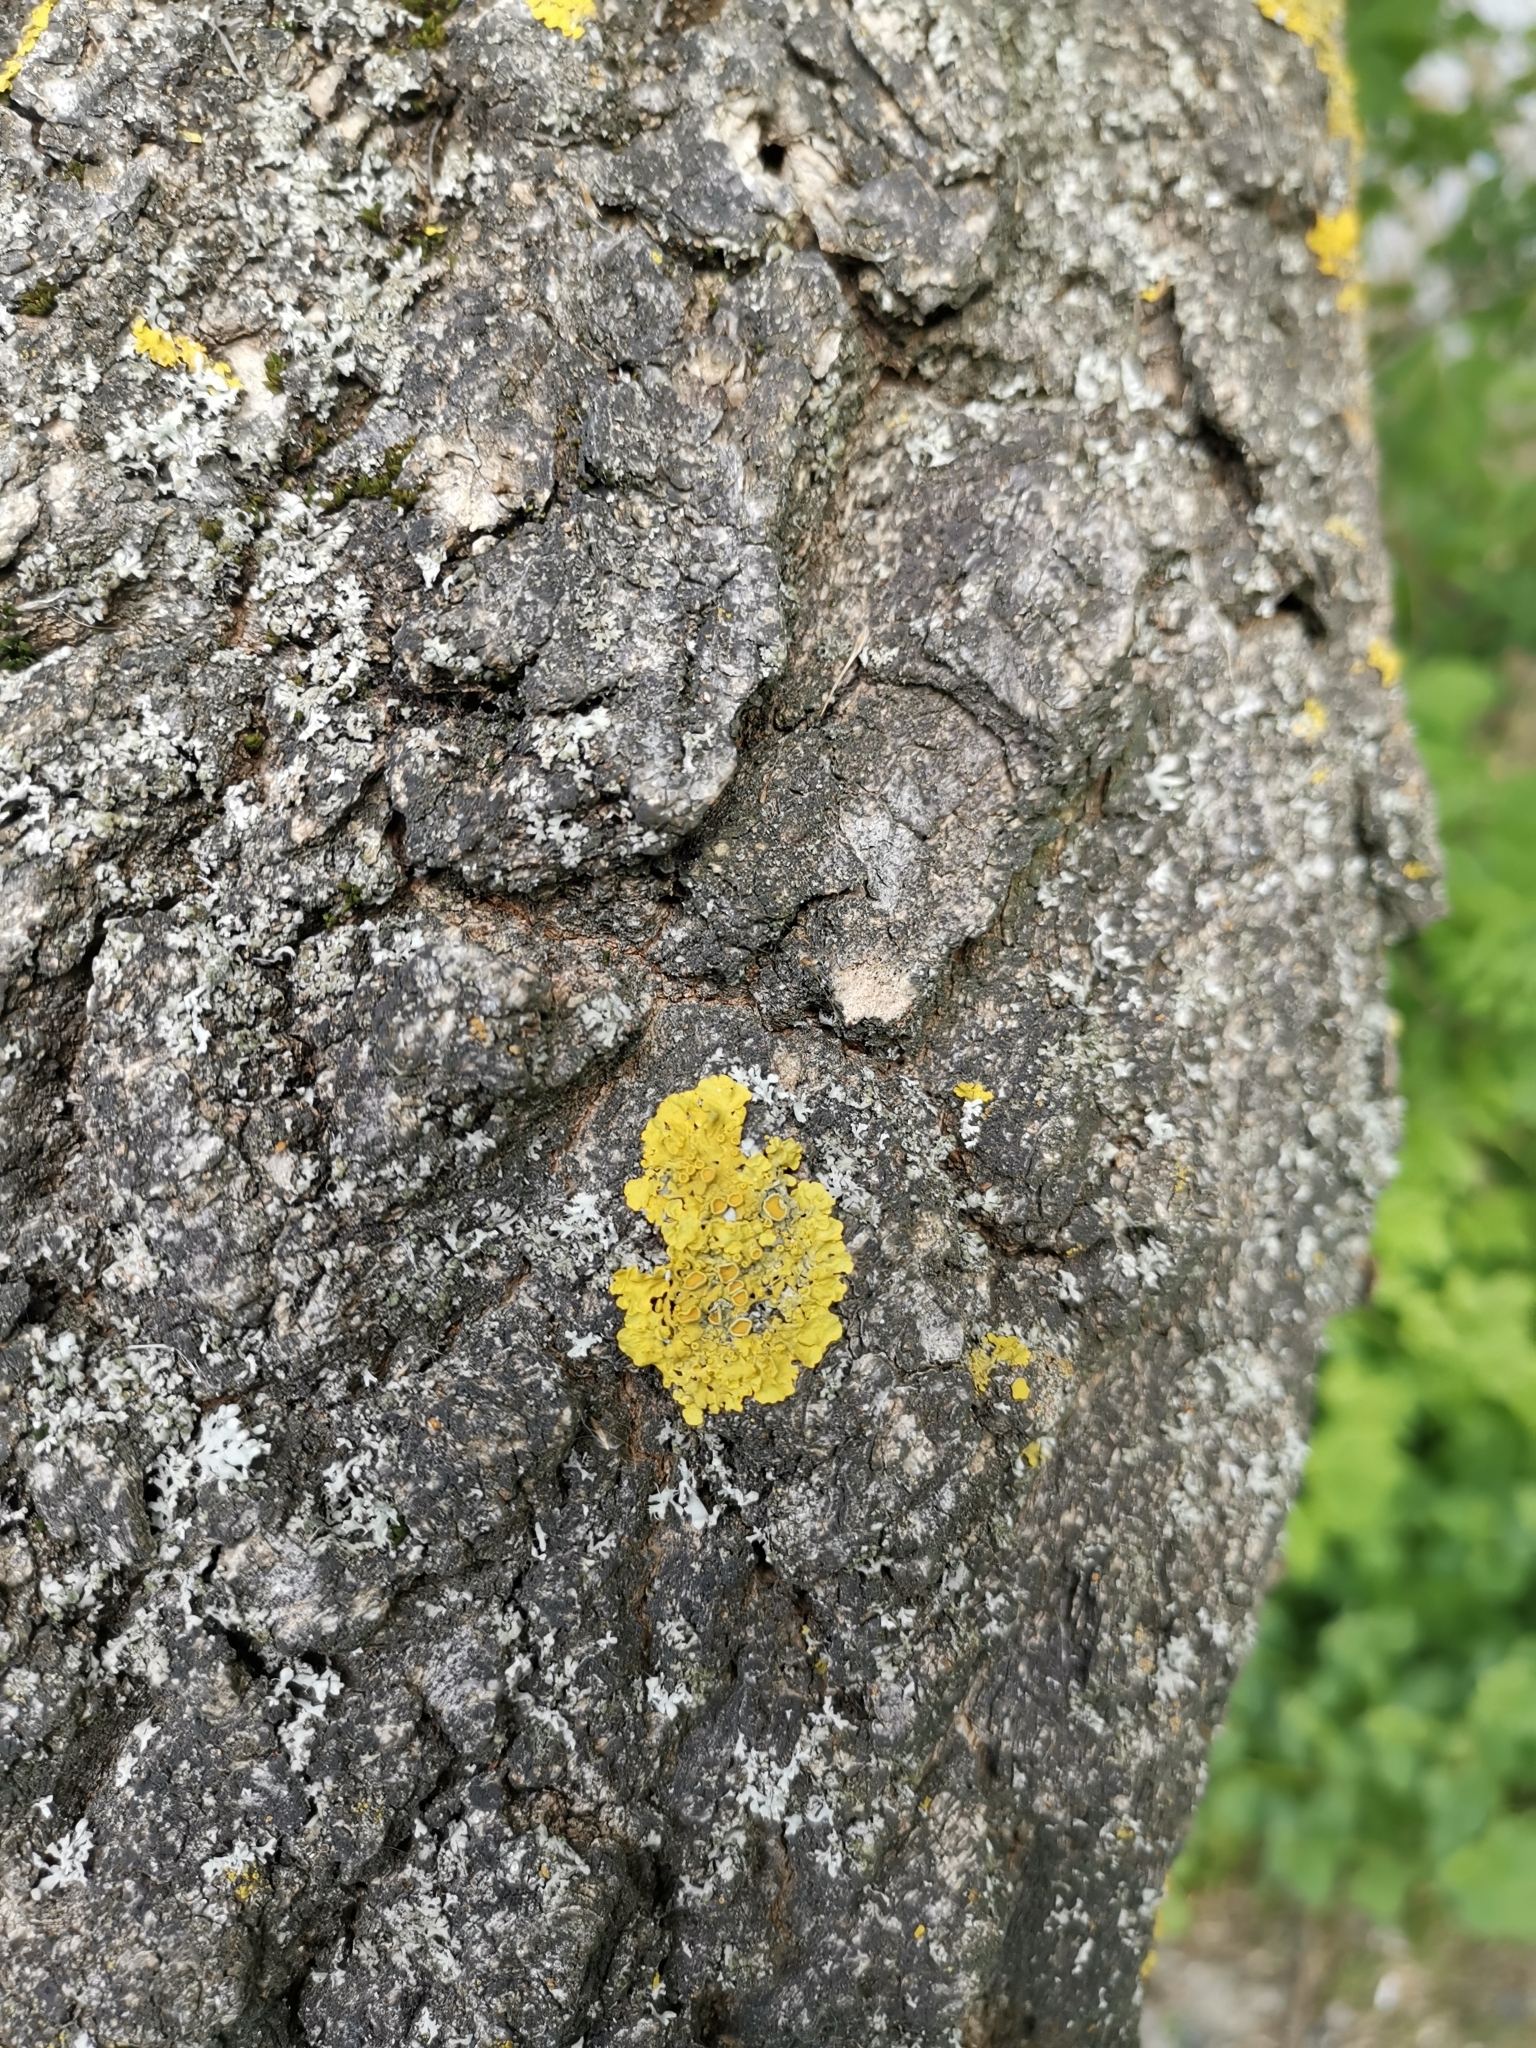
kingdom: Fungi
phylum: Ascomycota
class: Lecanoromycetes
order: Teloschistales
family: Teloschistaceae
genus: Xanthoria
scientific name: Xanthoria parietina
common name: Common orange lichen
